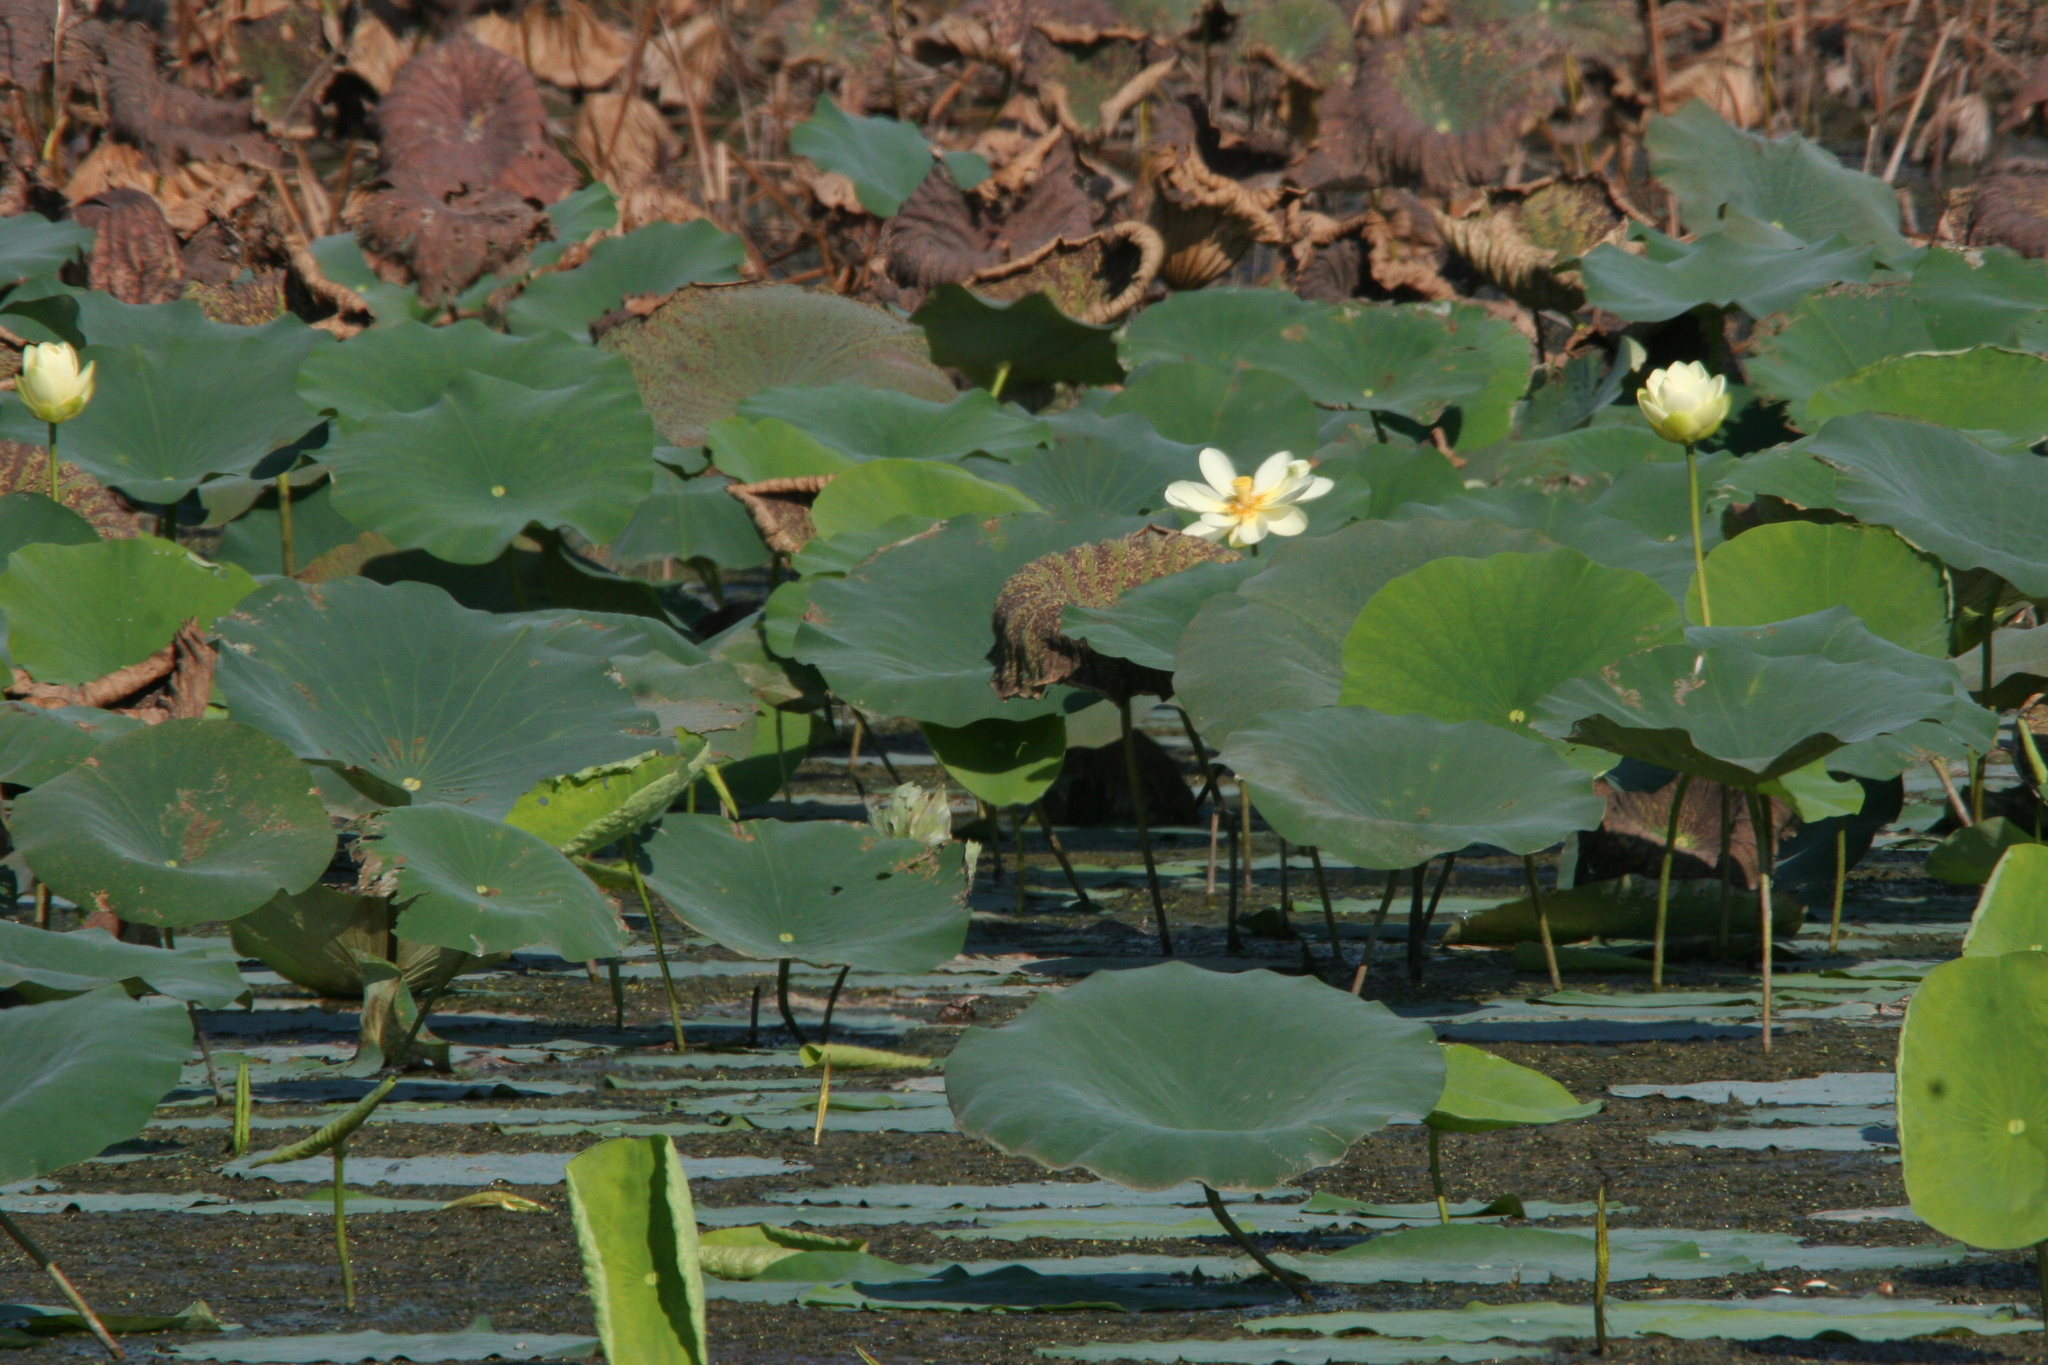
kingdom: Plantae
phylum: Tracheophyta
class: Magnoliopsida
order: Proteales
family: Nelumbonaceae
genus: Nelumbo
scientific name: Nelumbo lutea
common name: American lotus
